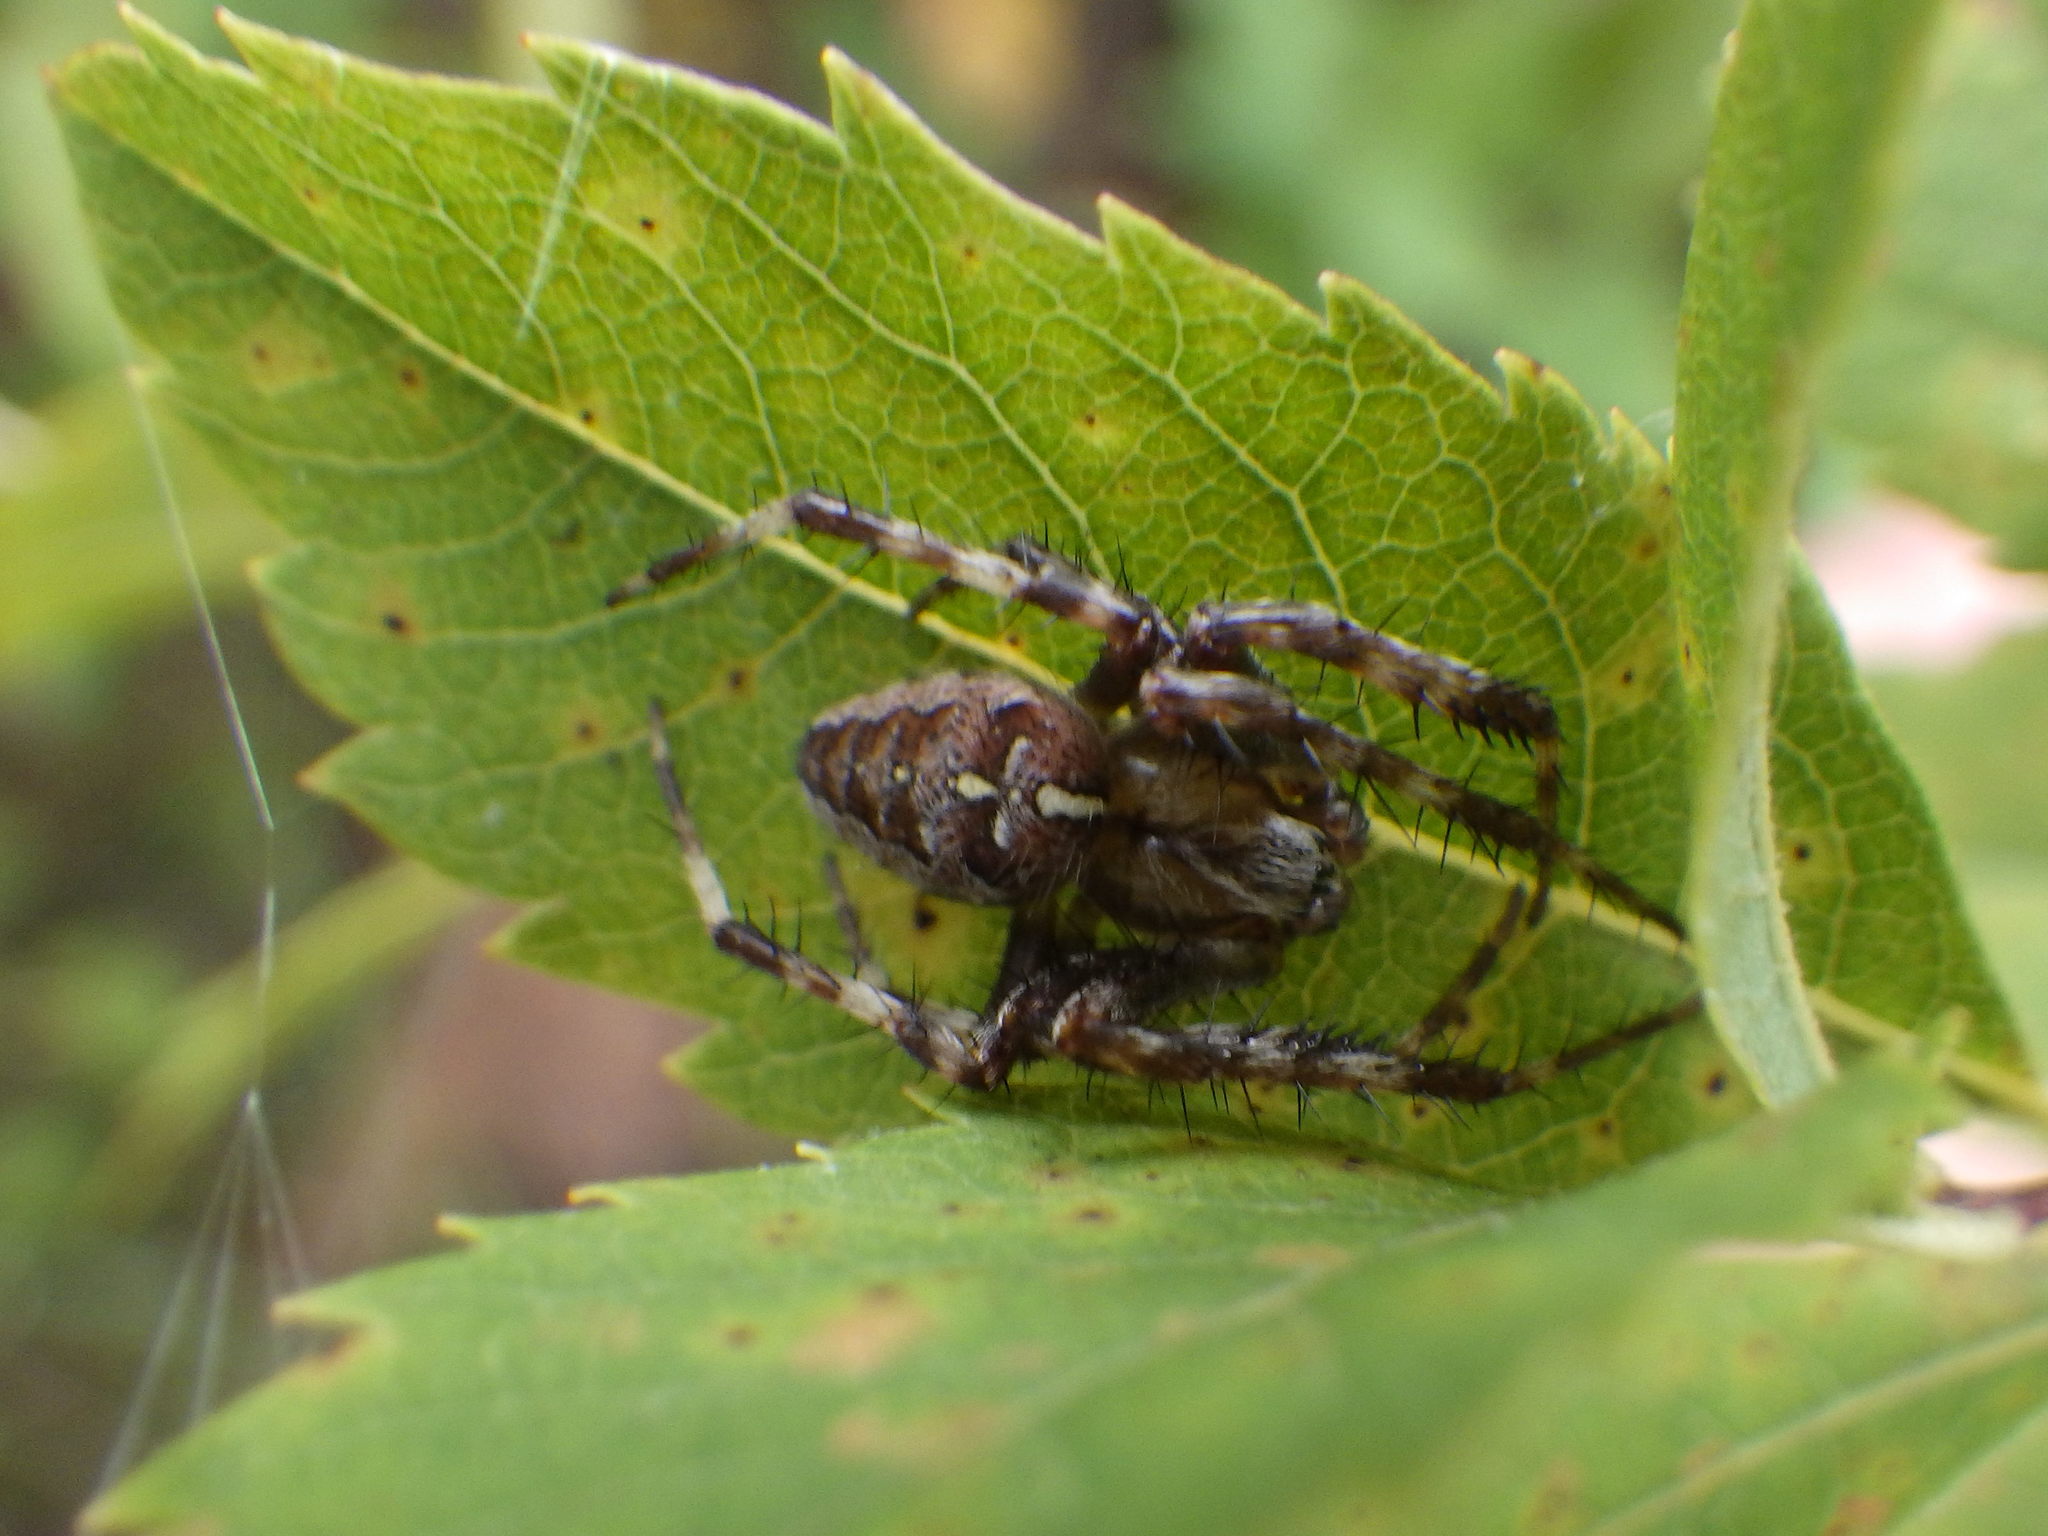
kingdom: Animalia
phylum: Arthropoda
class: Arachnida
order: Araneae
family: Araneidae
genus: Araneus
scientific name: Araneus diadematus
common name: Cross orbweaver
